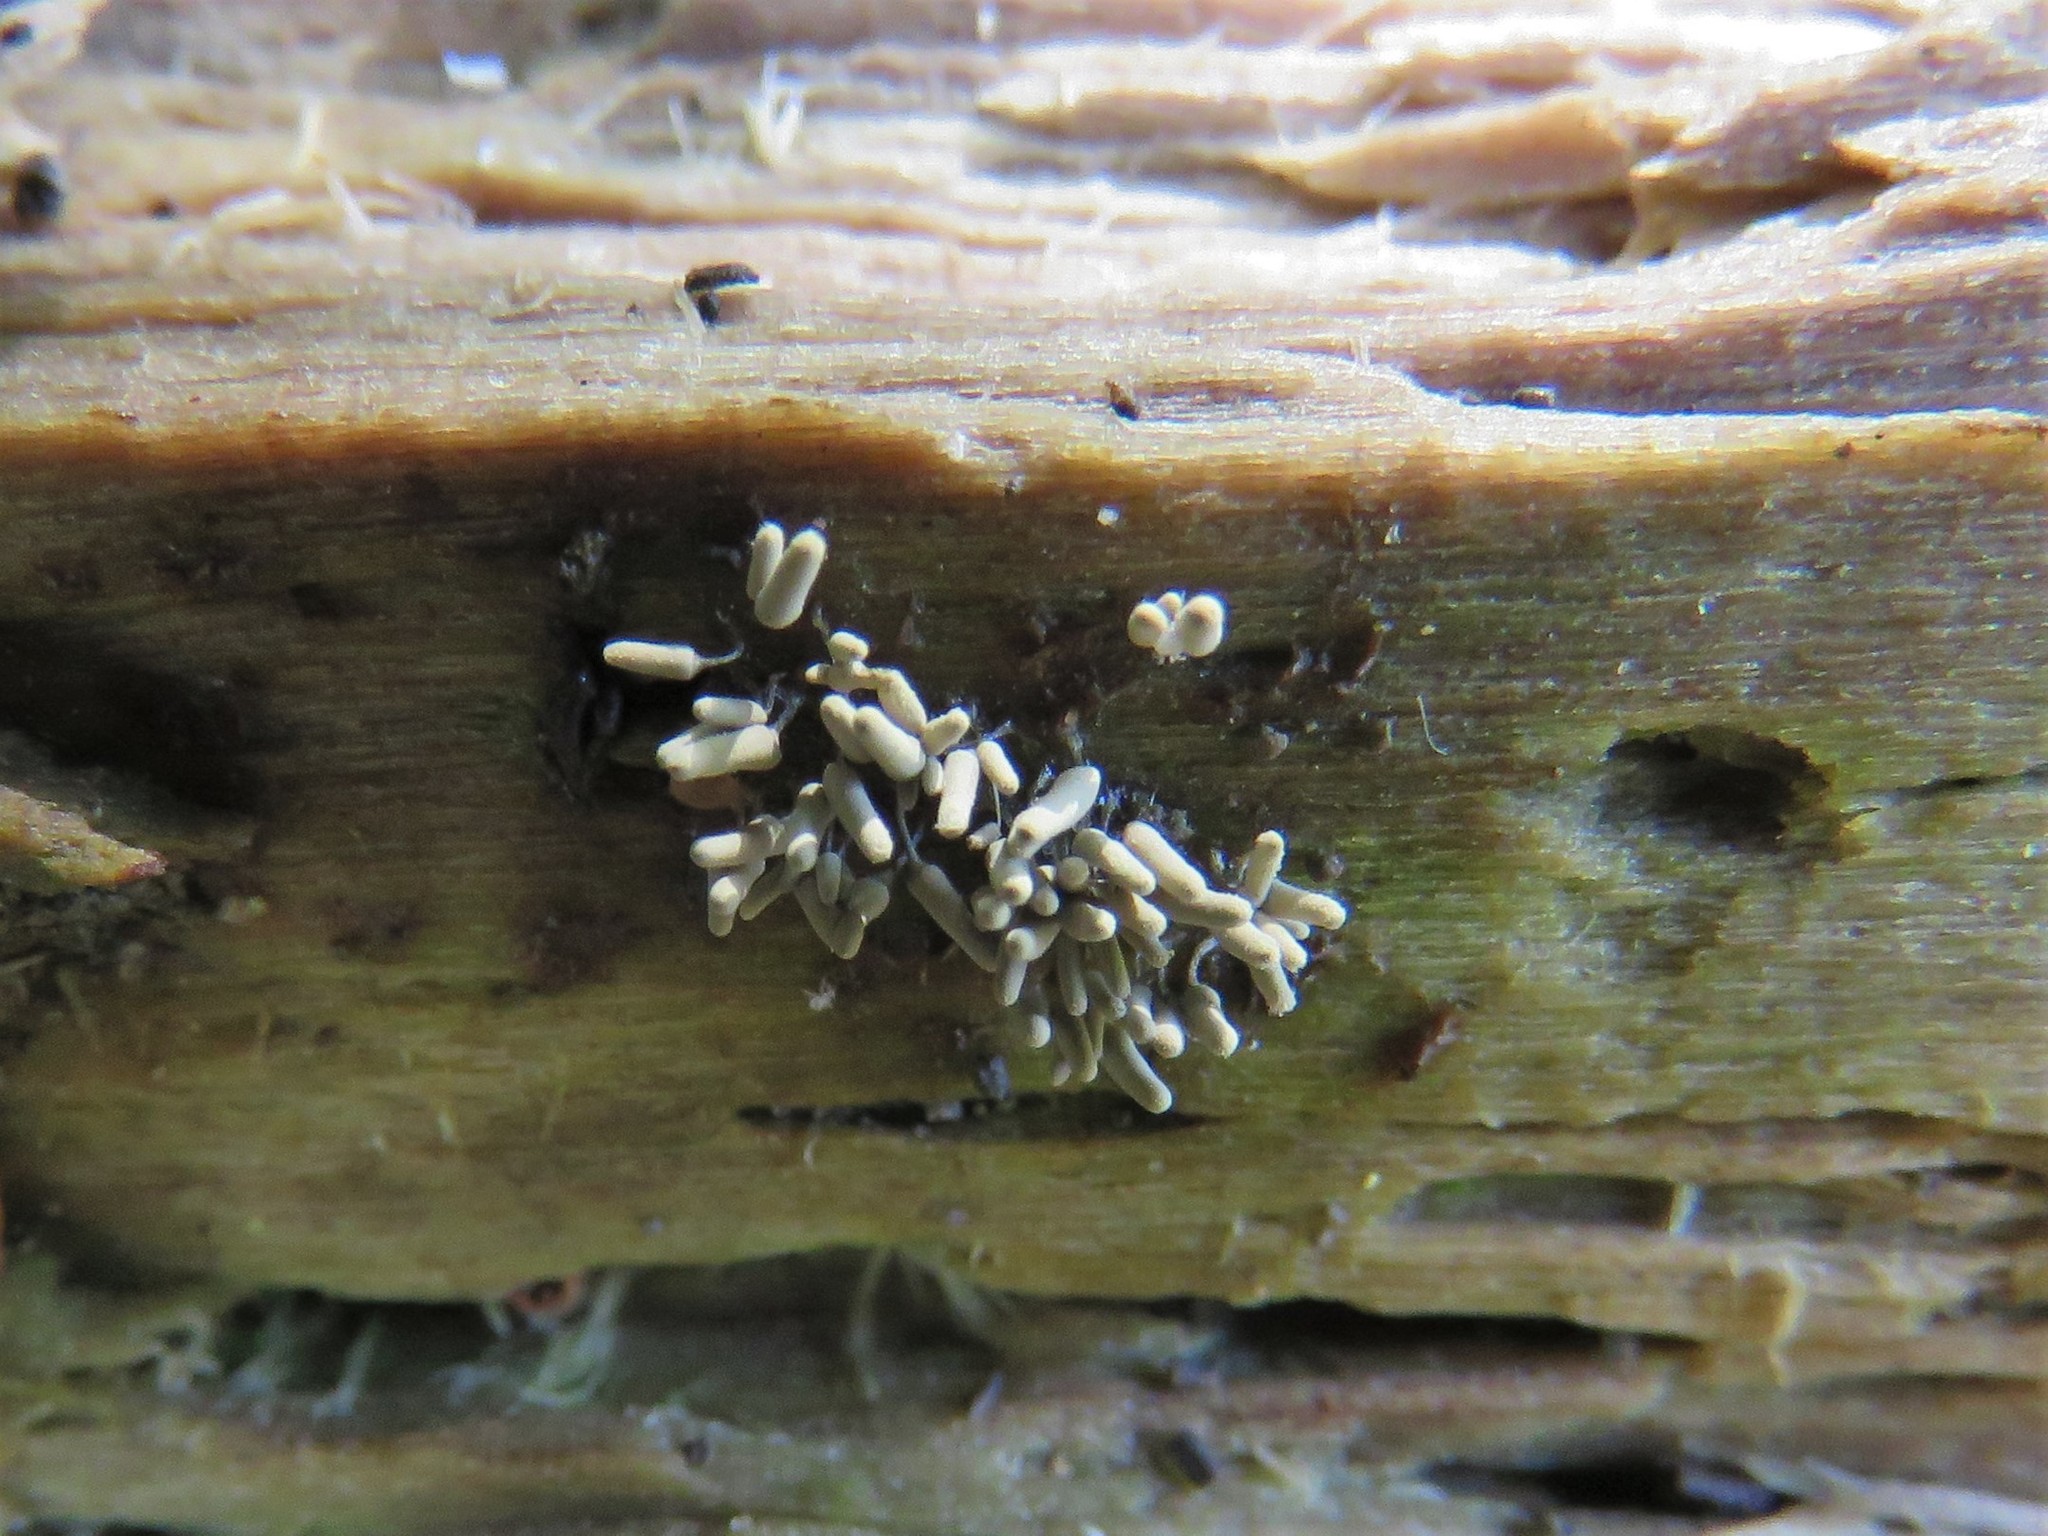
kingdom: Protozoa
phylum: Mycetozoa
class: Myxomycetes
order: Trichiales
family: Arcyriaceae
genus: Arcyria
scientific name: Arcyria cinerea
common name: White carnival candy slime mold
